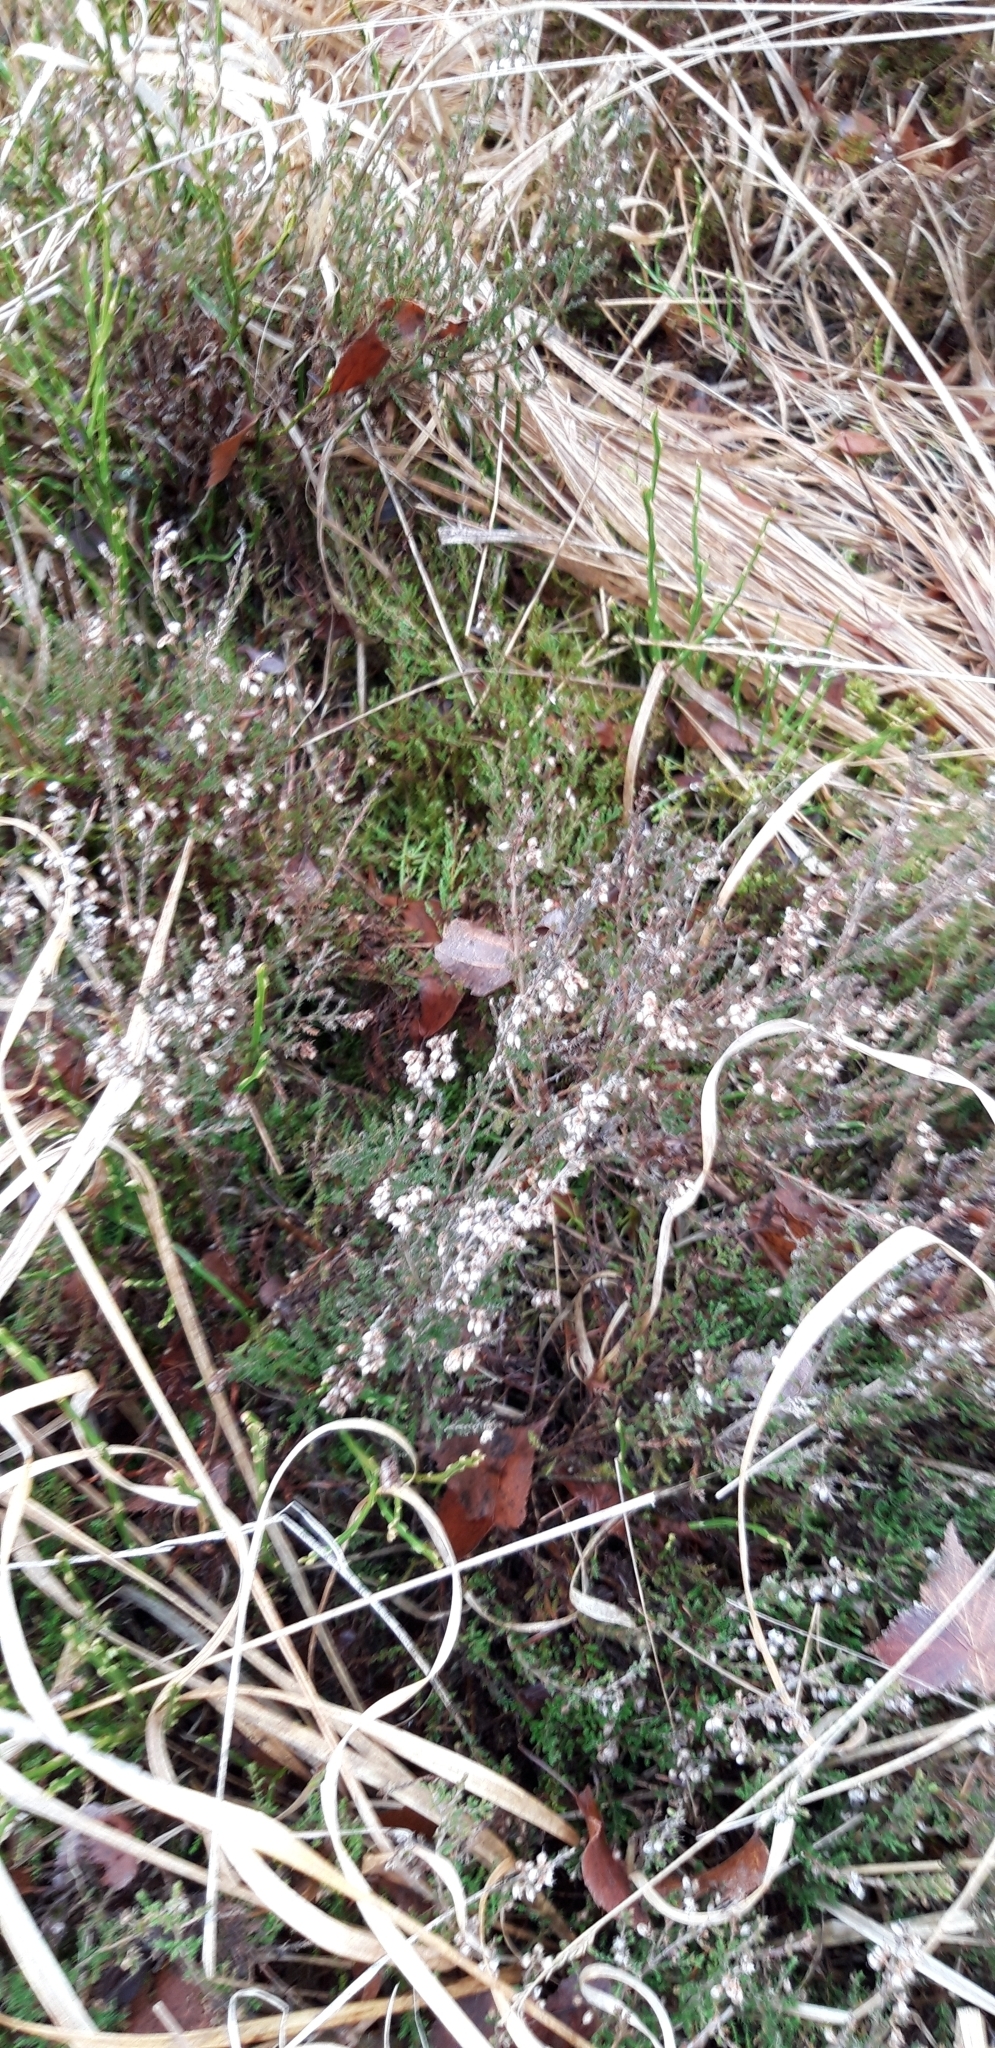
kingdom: Plantae
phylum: Tracheophyta
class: Magnoliopsida
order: Ericales
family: Ericaceae
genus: Calluna
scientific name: Calluna vulgaris
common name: Heather
